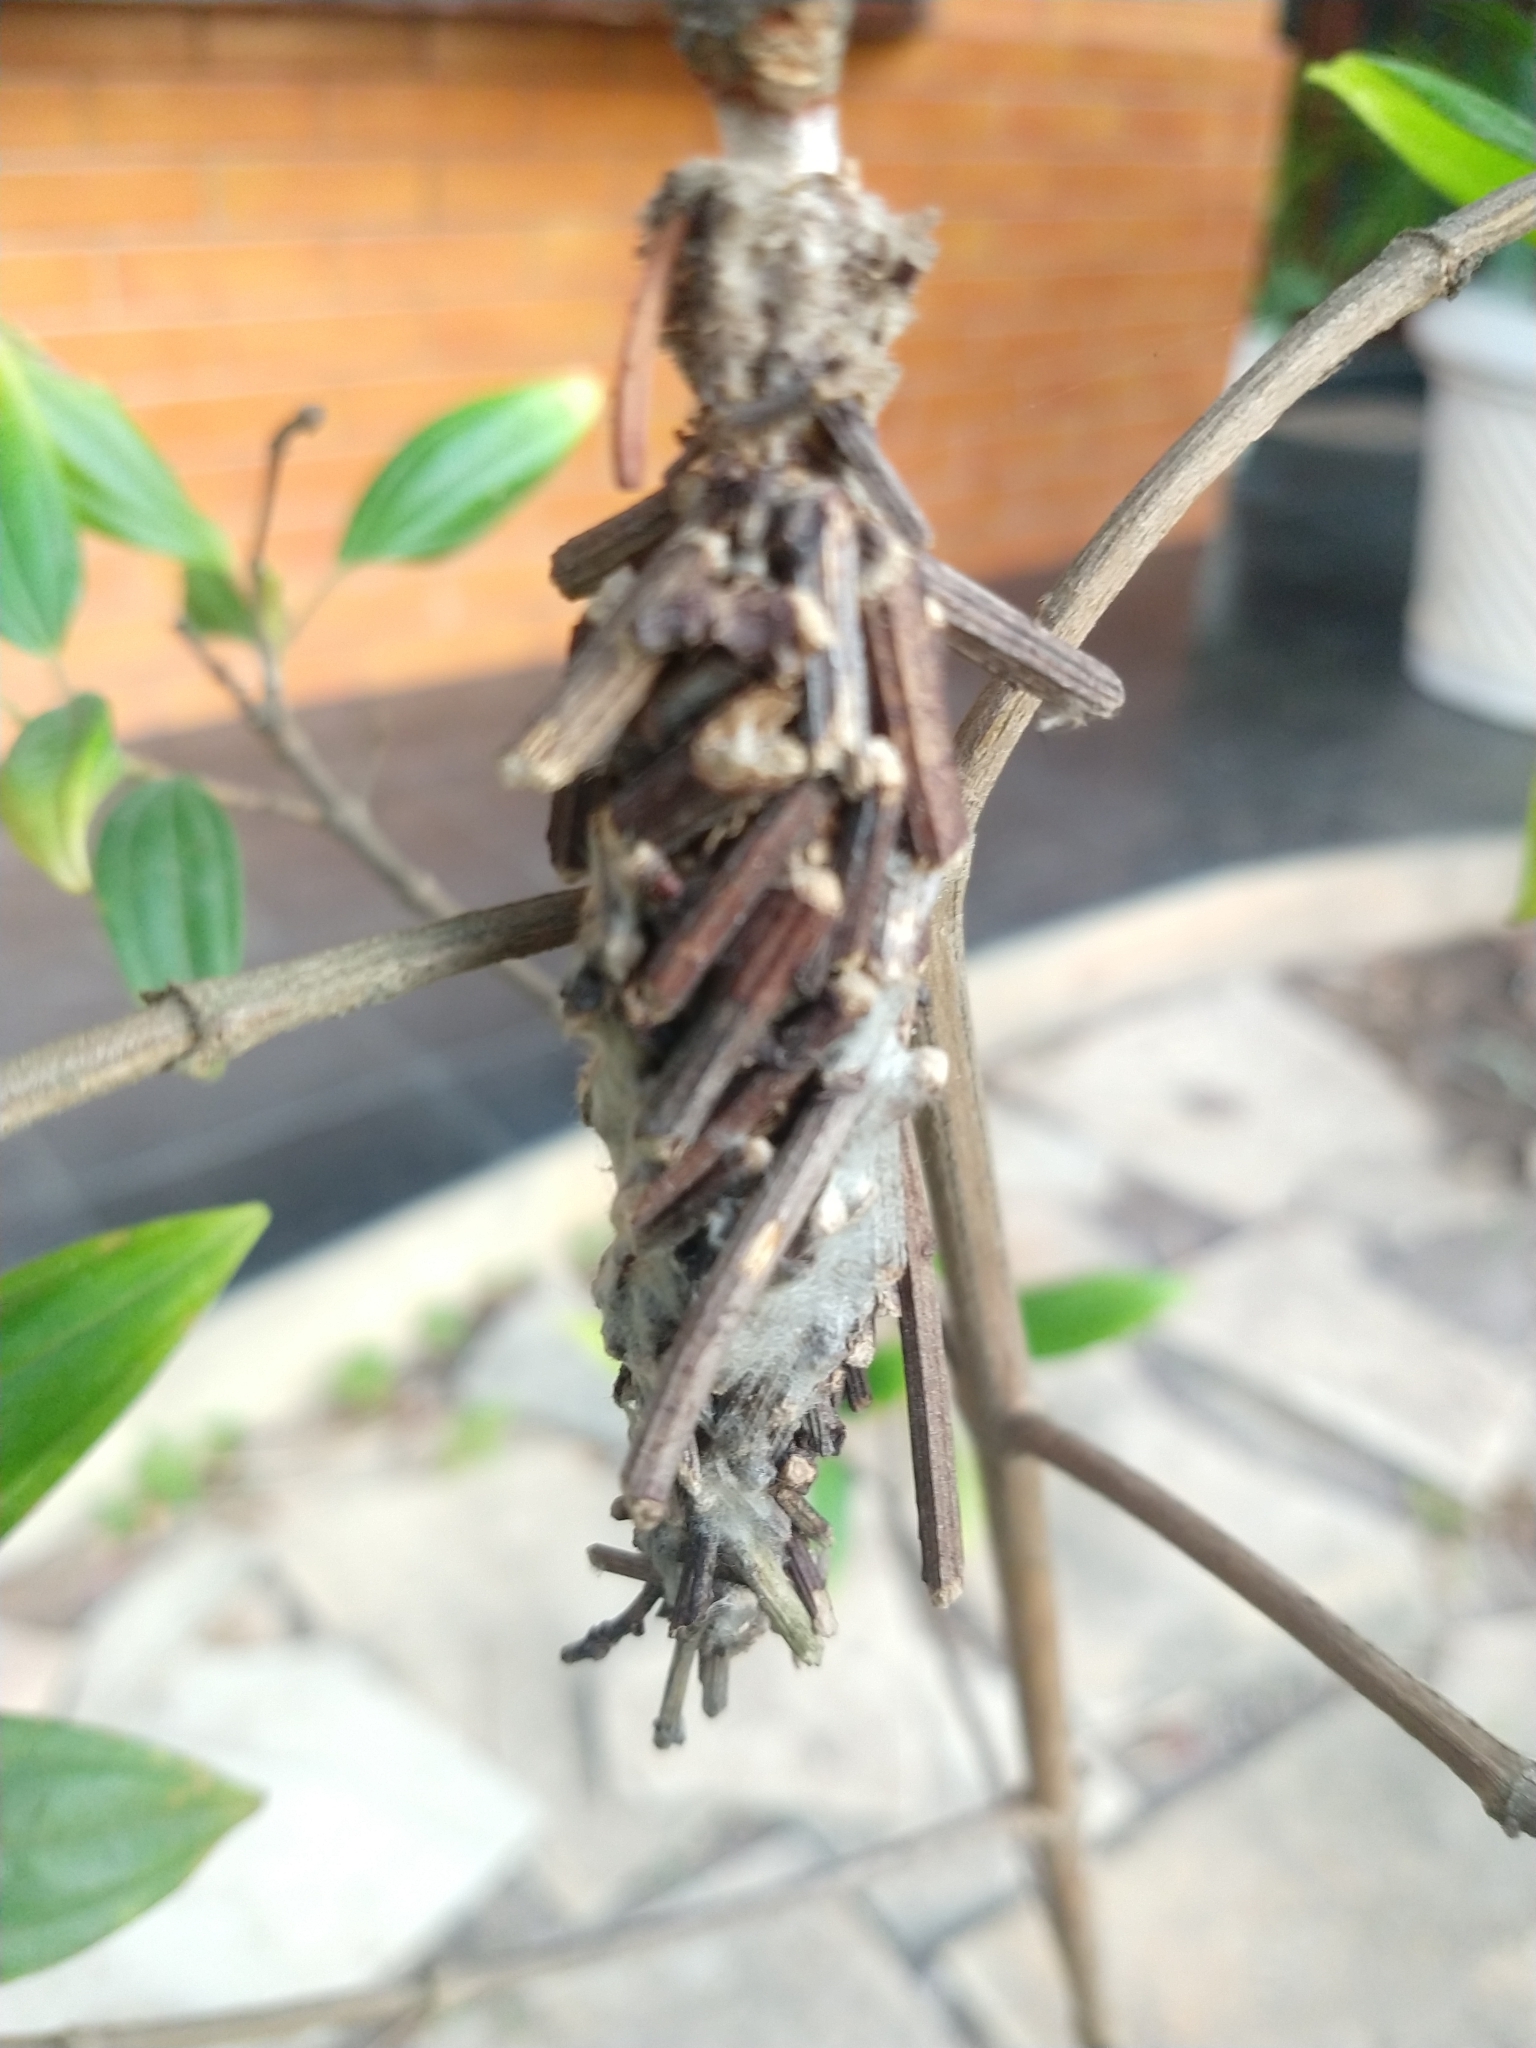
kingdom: Animalia
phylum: Arthropoda
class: Insecta
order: Lepidoptera
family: Psychidae
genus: Oiketicus
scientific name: Oiketicus kirbyi
